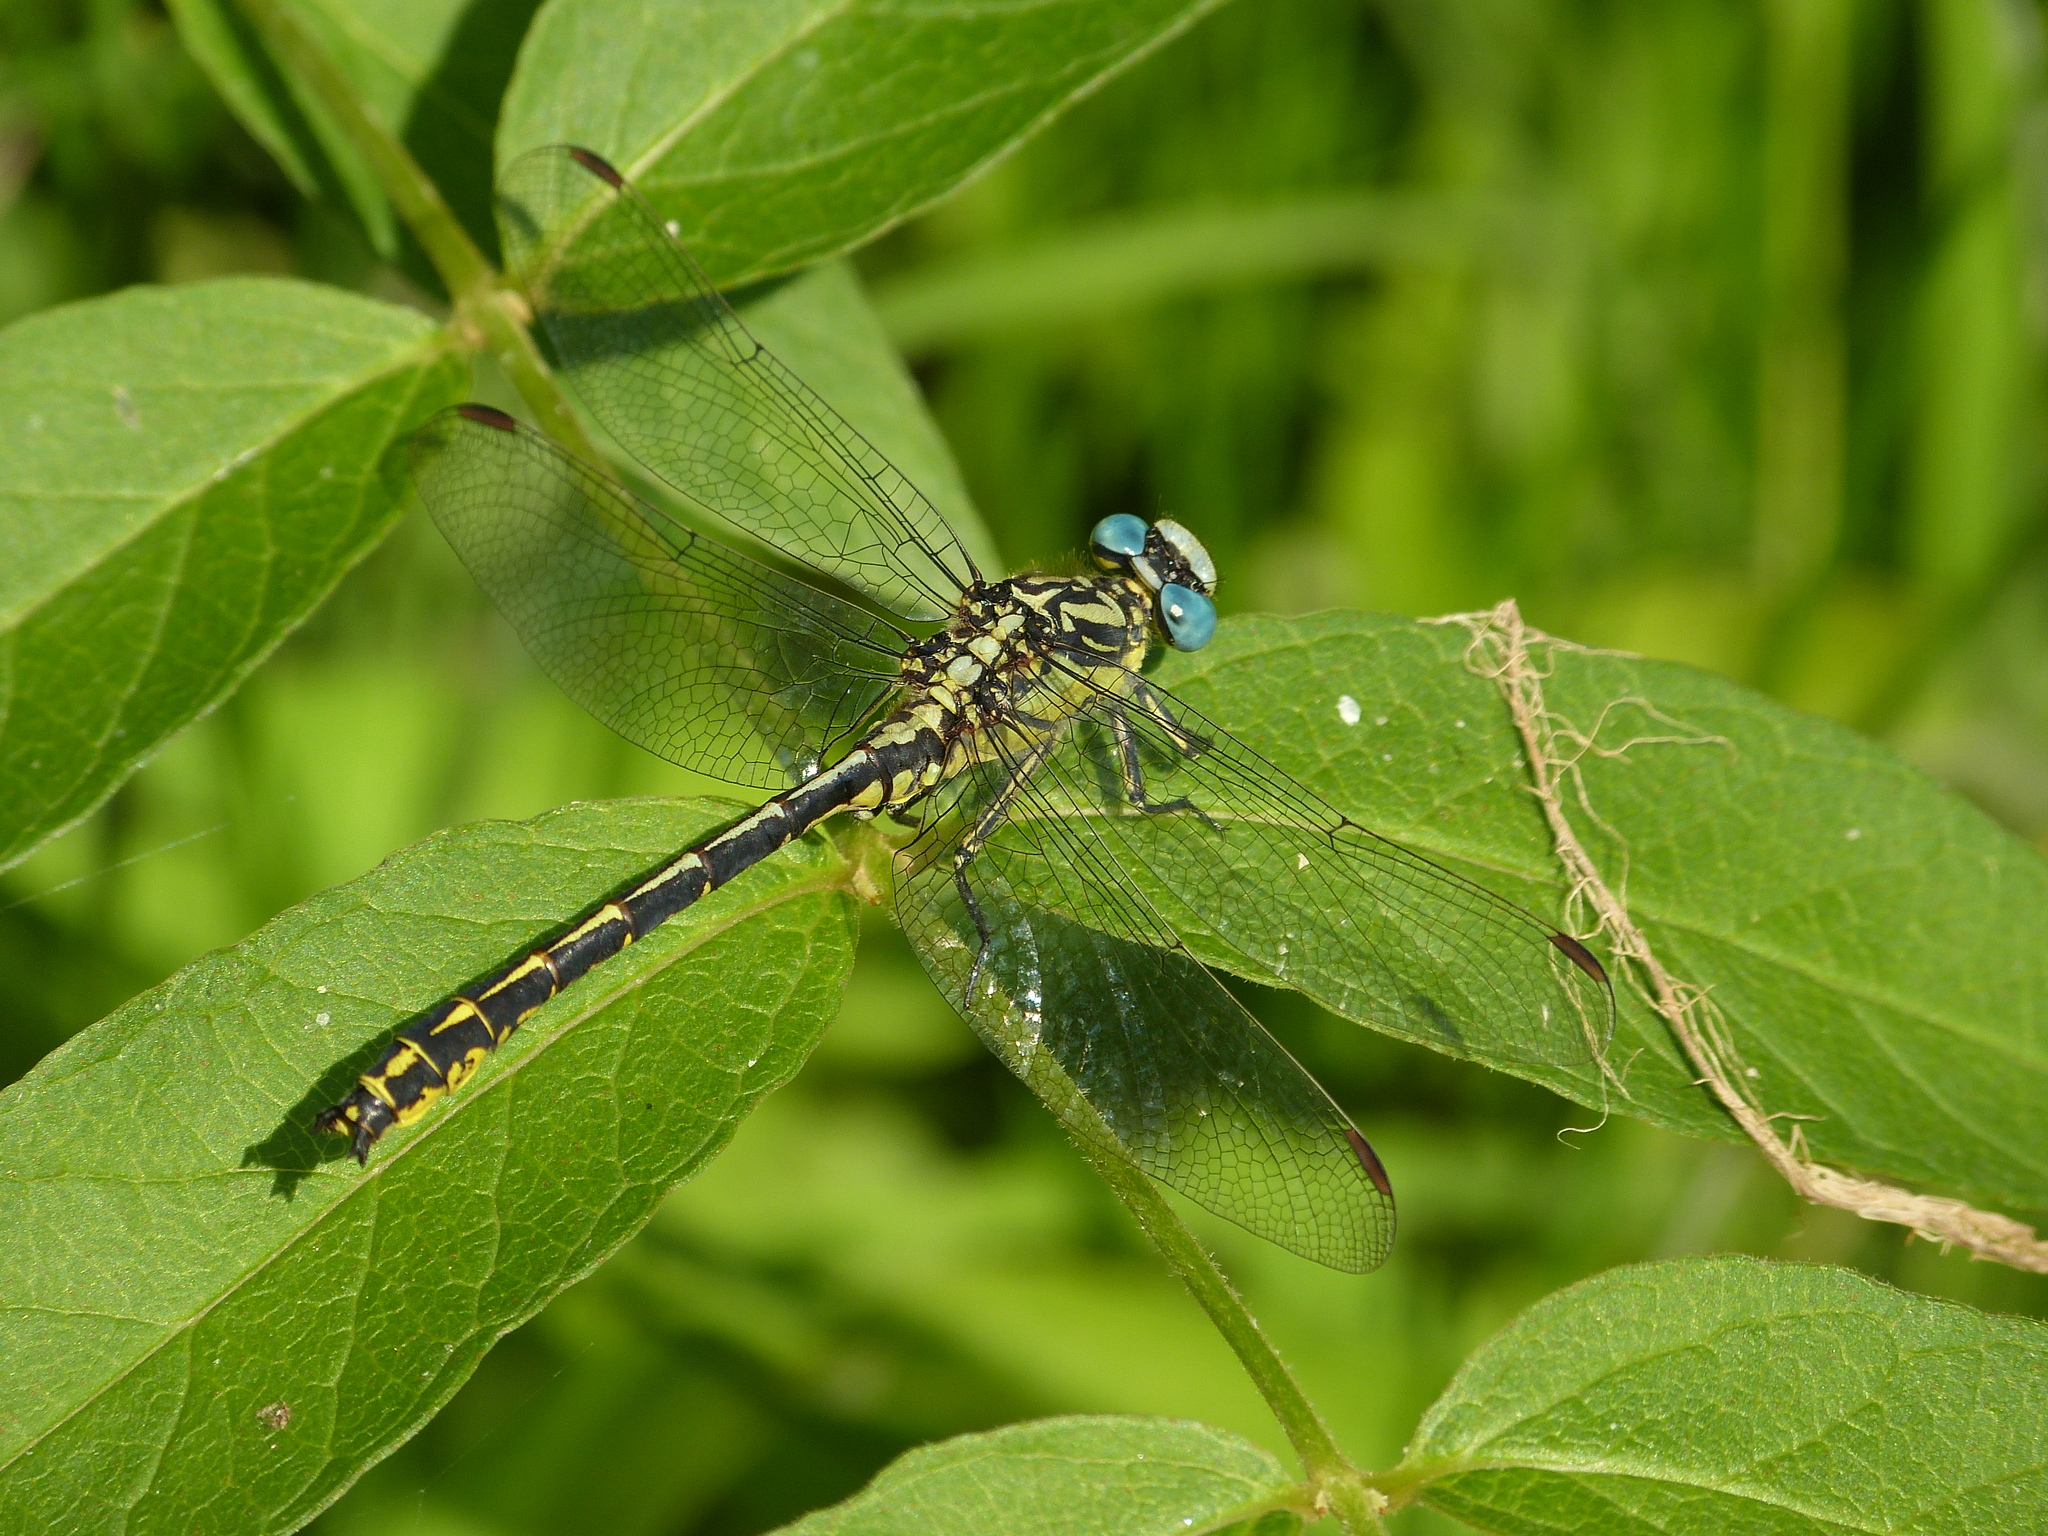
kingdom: Animalia
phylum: Arthropoda
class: Insecta
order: Odonata
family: Gomphidae
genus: Gomphus
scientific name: Gomphus graslinii
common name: Pronged clubtail
